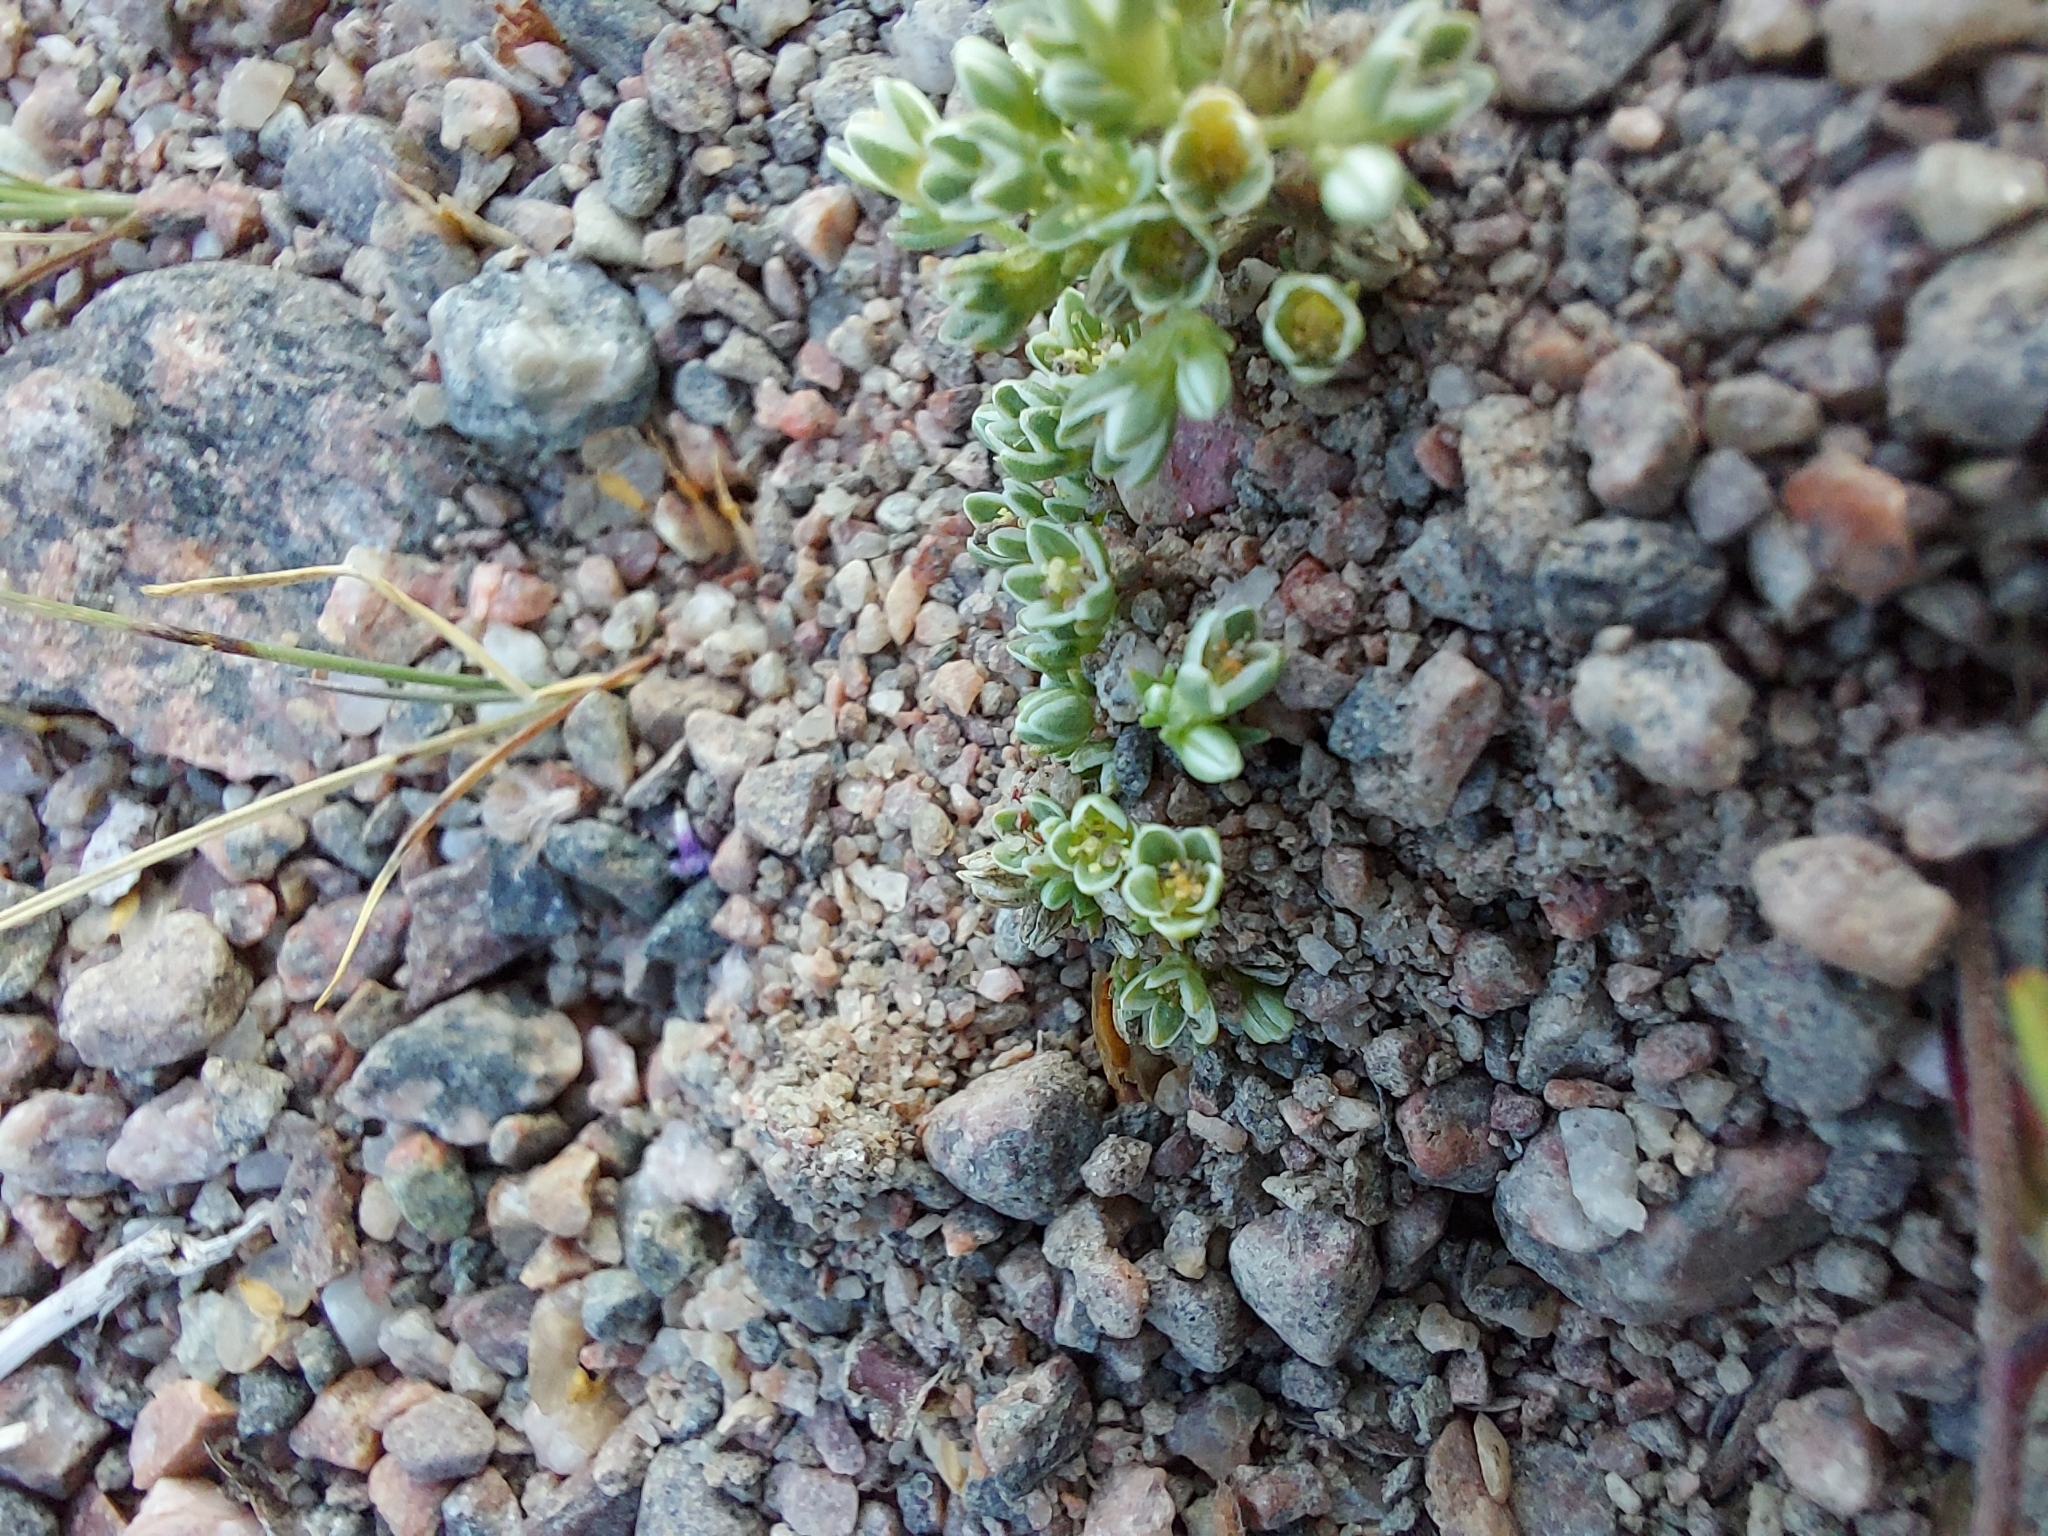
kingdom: Plantae
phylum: Tracheophyta
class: Magnoliopsida
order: Caryophyllales
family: Caryophyllaceae
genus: Scleranthus
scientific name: Scleranthus perennis
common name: Perennial knawel
